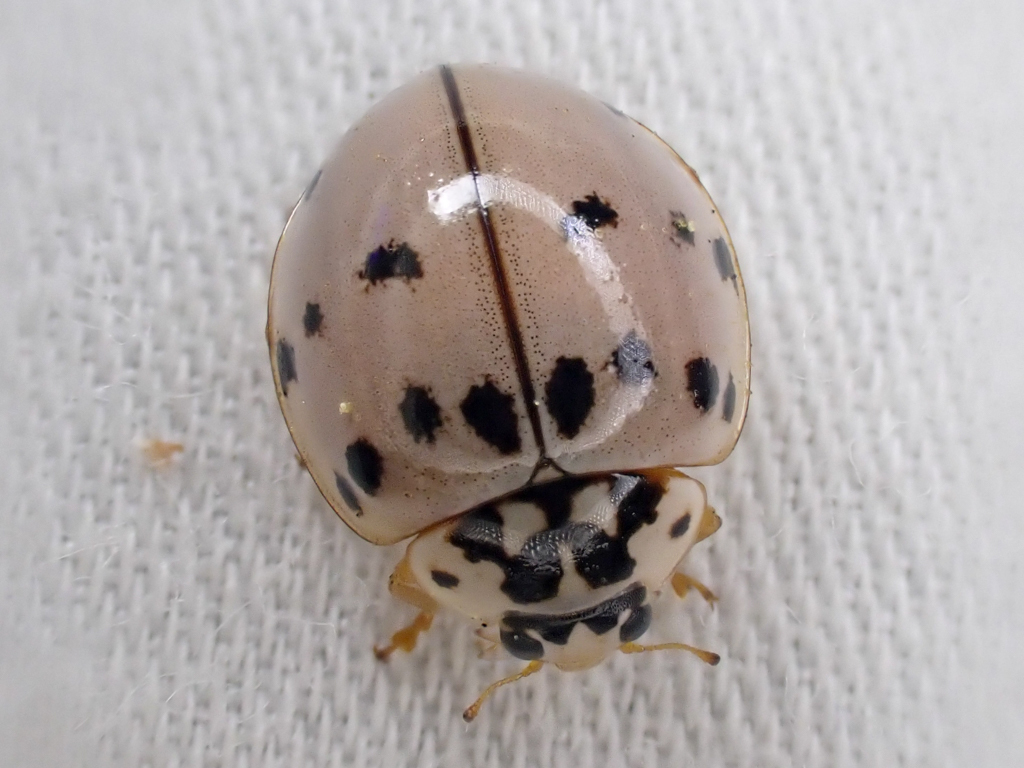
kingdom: Animalia
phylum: Arthropoda
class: Insecta
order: Coleoptera
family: Coccinellidae
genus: Olla
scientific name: Olla v-nigrum
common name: Ashy gray lady beetle
